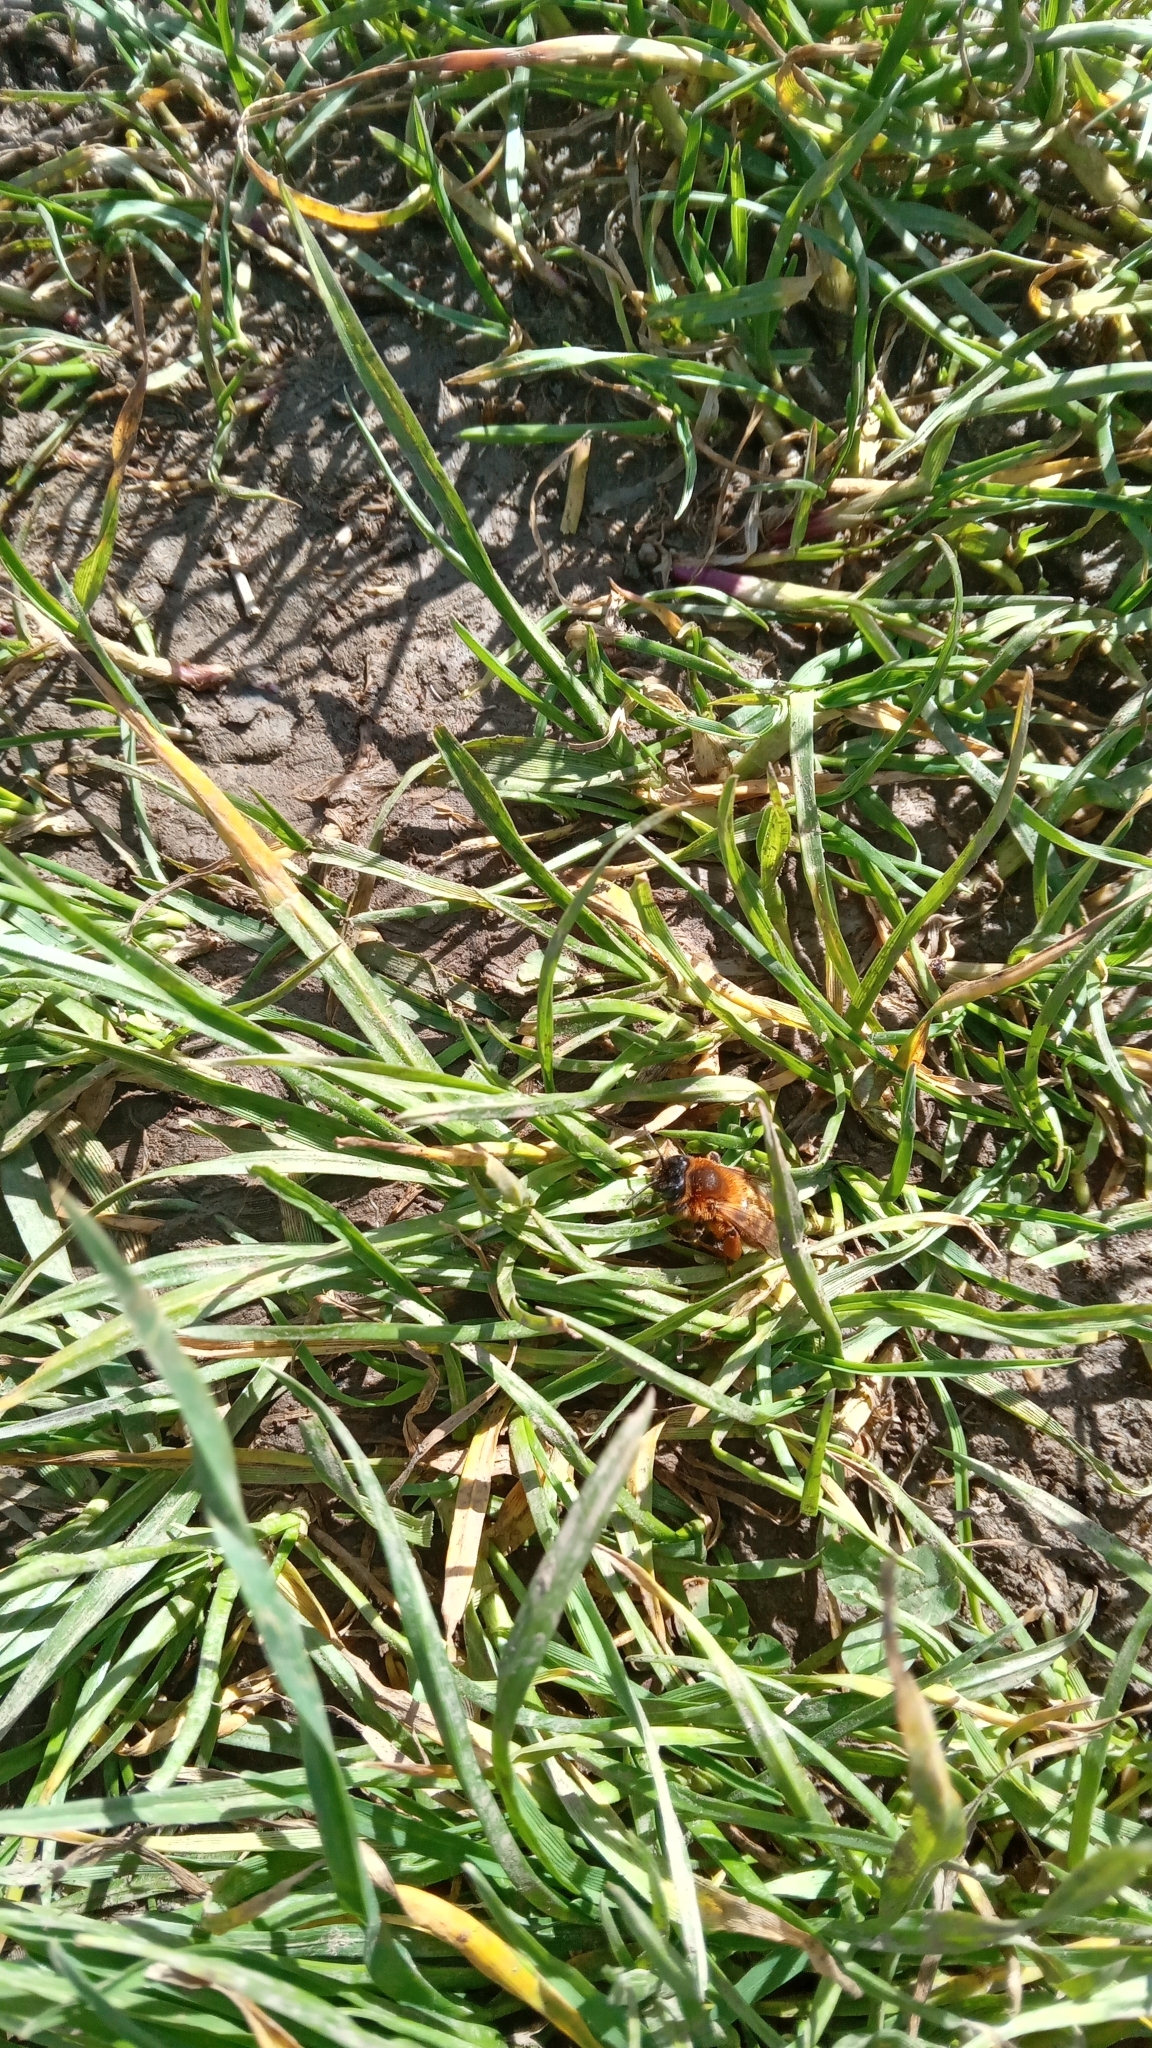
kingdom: Animalia
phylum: Arthropoda
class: Insecta
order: Hymenoptera
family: Andrenidae
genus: Andrena
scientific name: Andrena fulva
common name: Tawny mining bee
